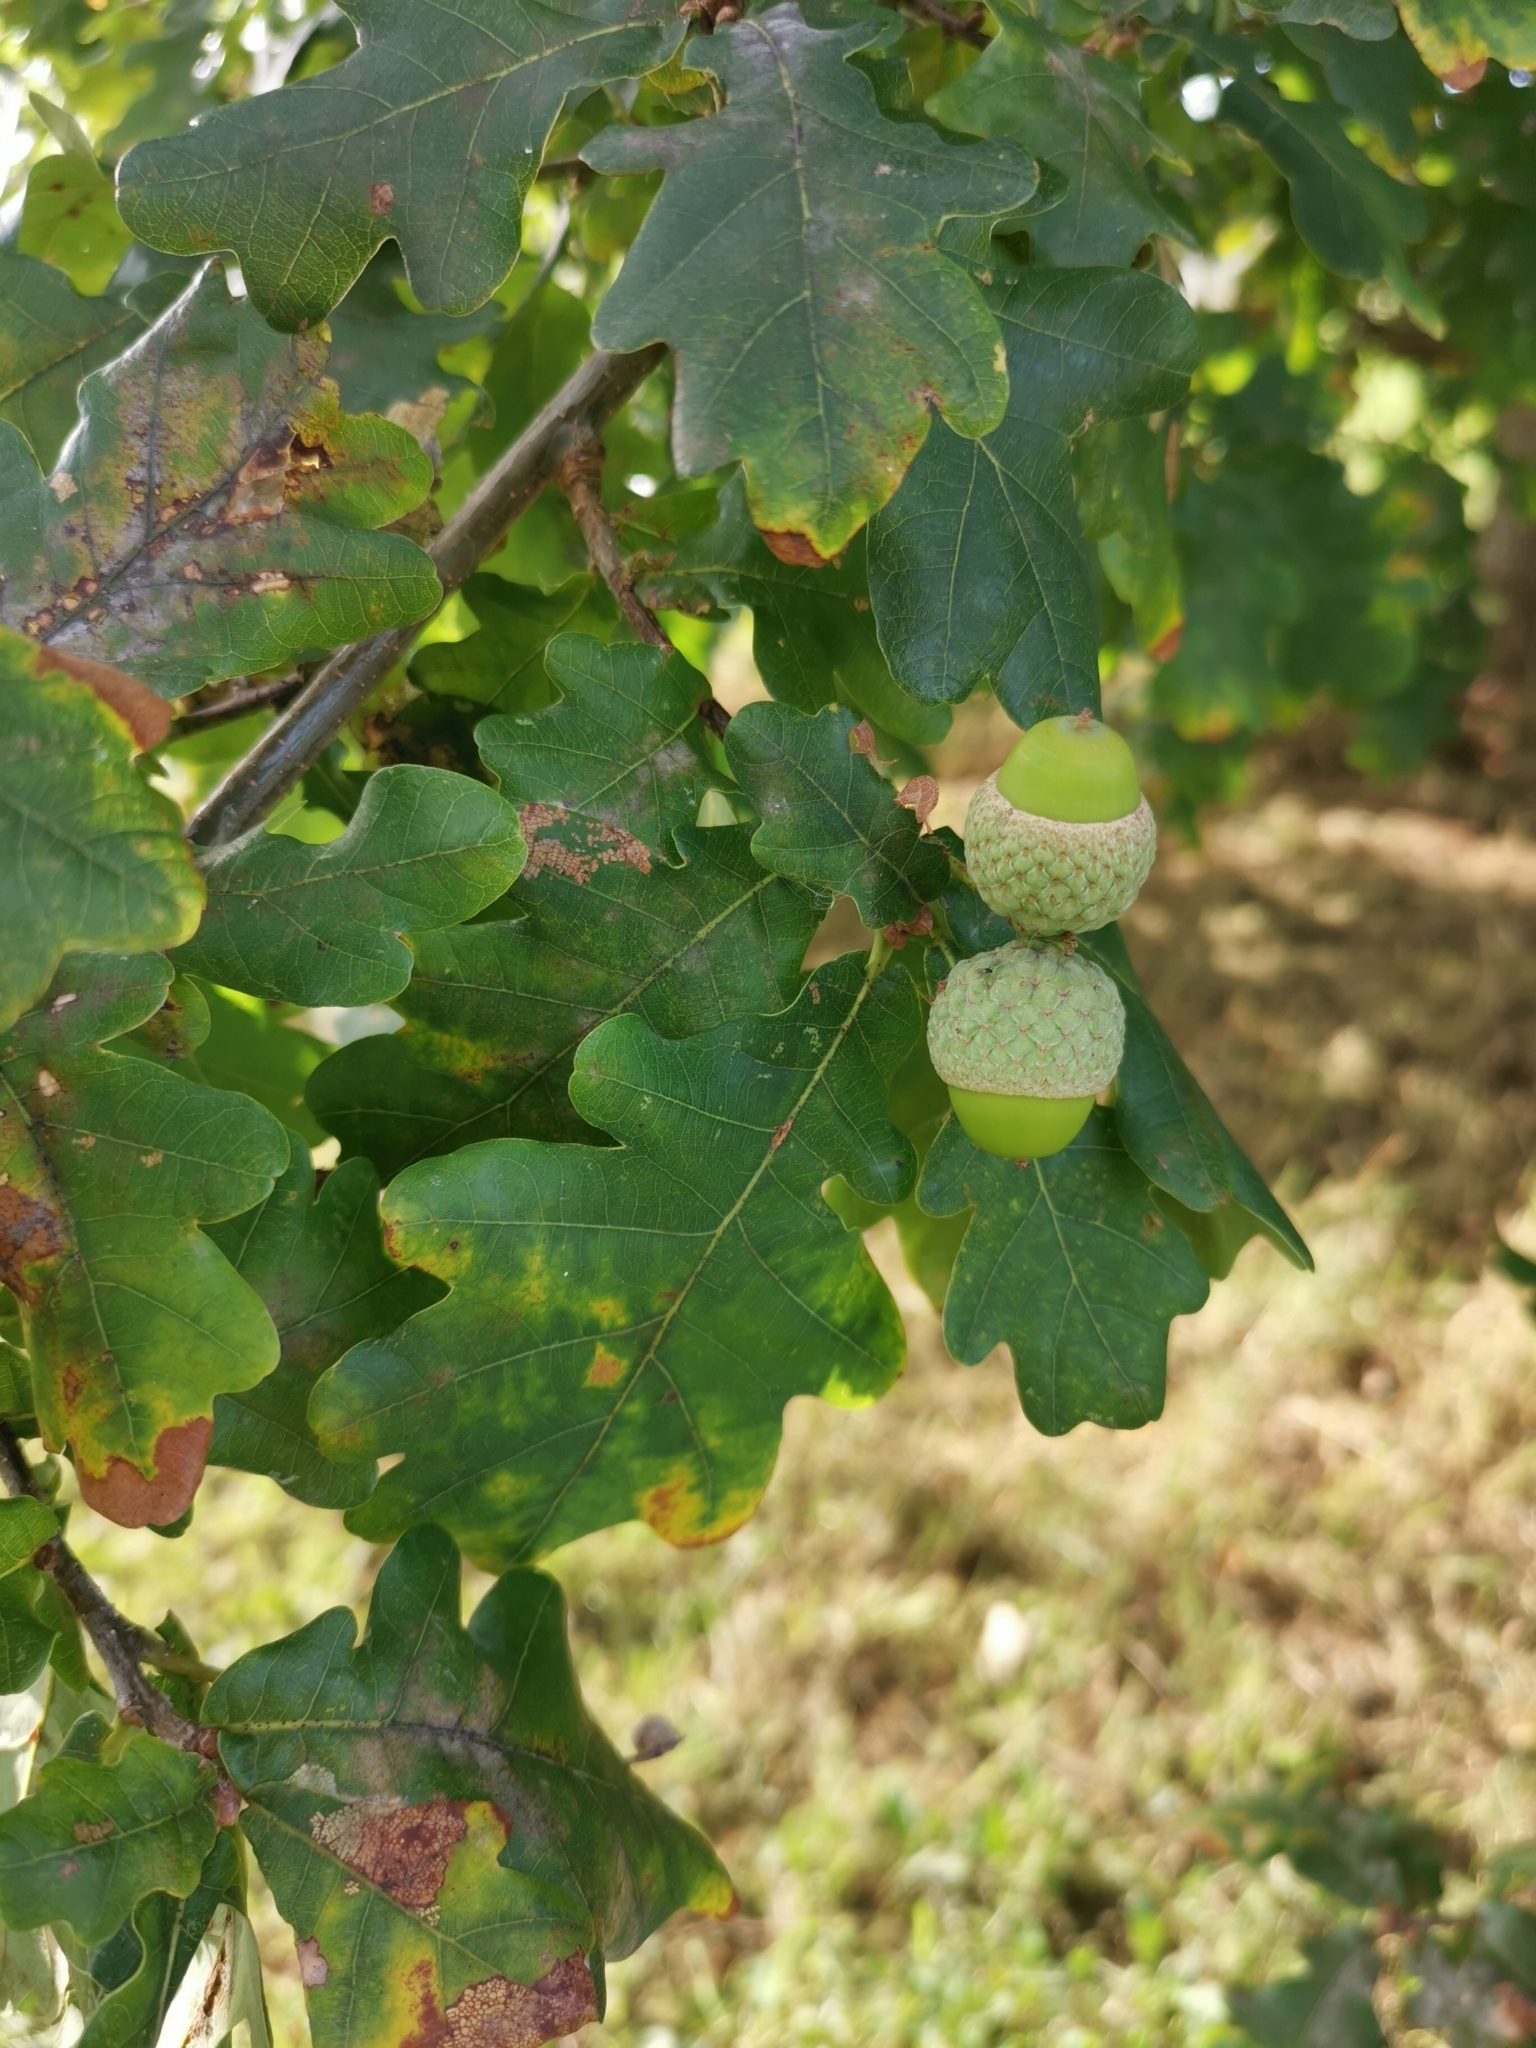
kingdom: Plantae
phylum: Tracheophyta
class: Magnoliopsida
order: Fagales
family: Fagaceae
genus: Quercus
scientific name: Quercus robur
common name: Pedunculate oak
